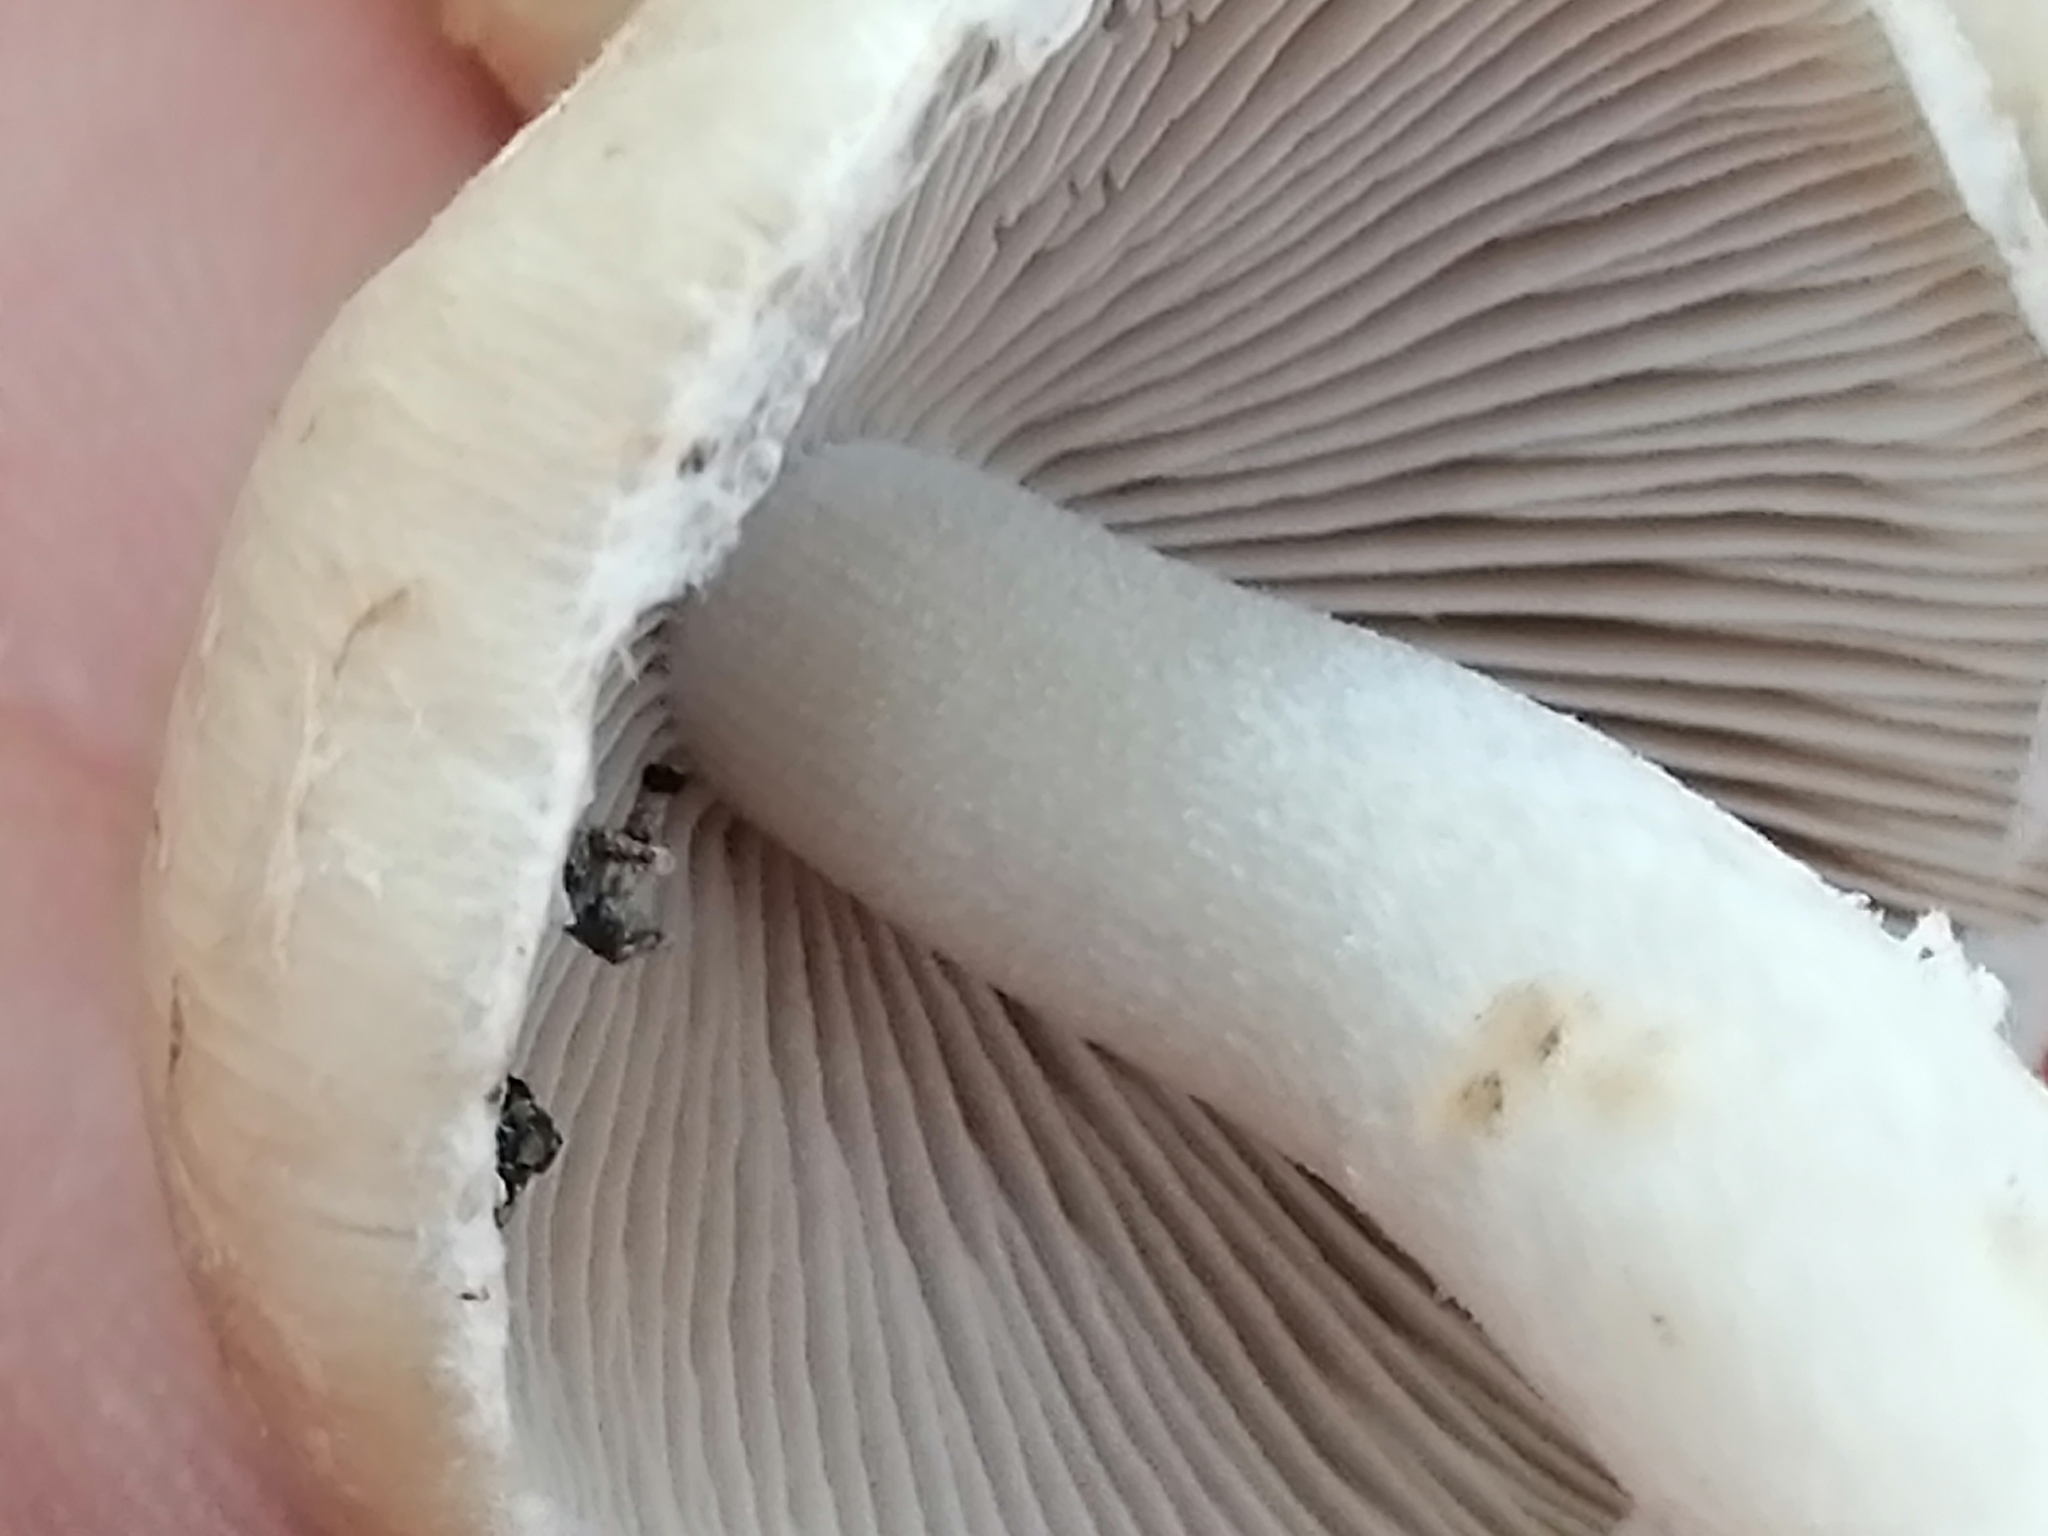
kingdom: Fungi
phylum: Basidiomycota
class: Agaricomycetes
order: Agaricales
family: Psathyrellaceae
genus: Candolleomyces
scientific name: Candolleomyces candolleanus
